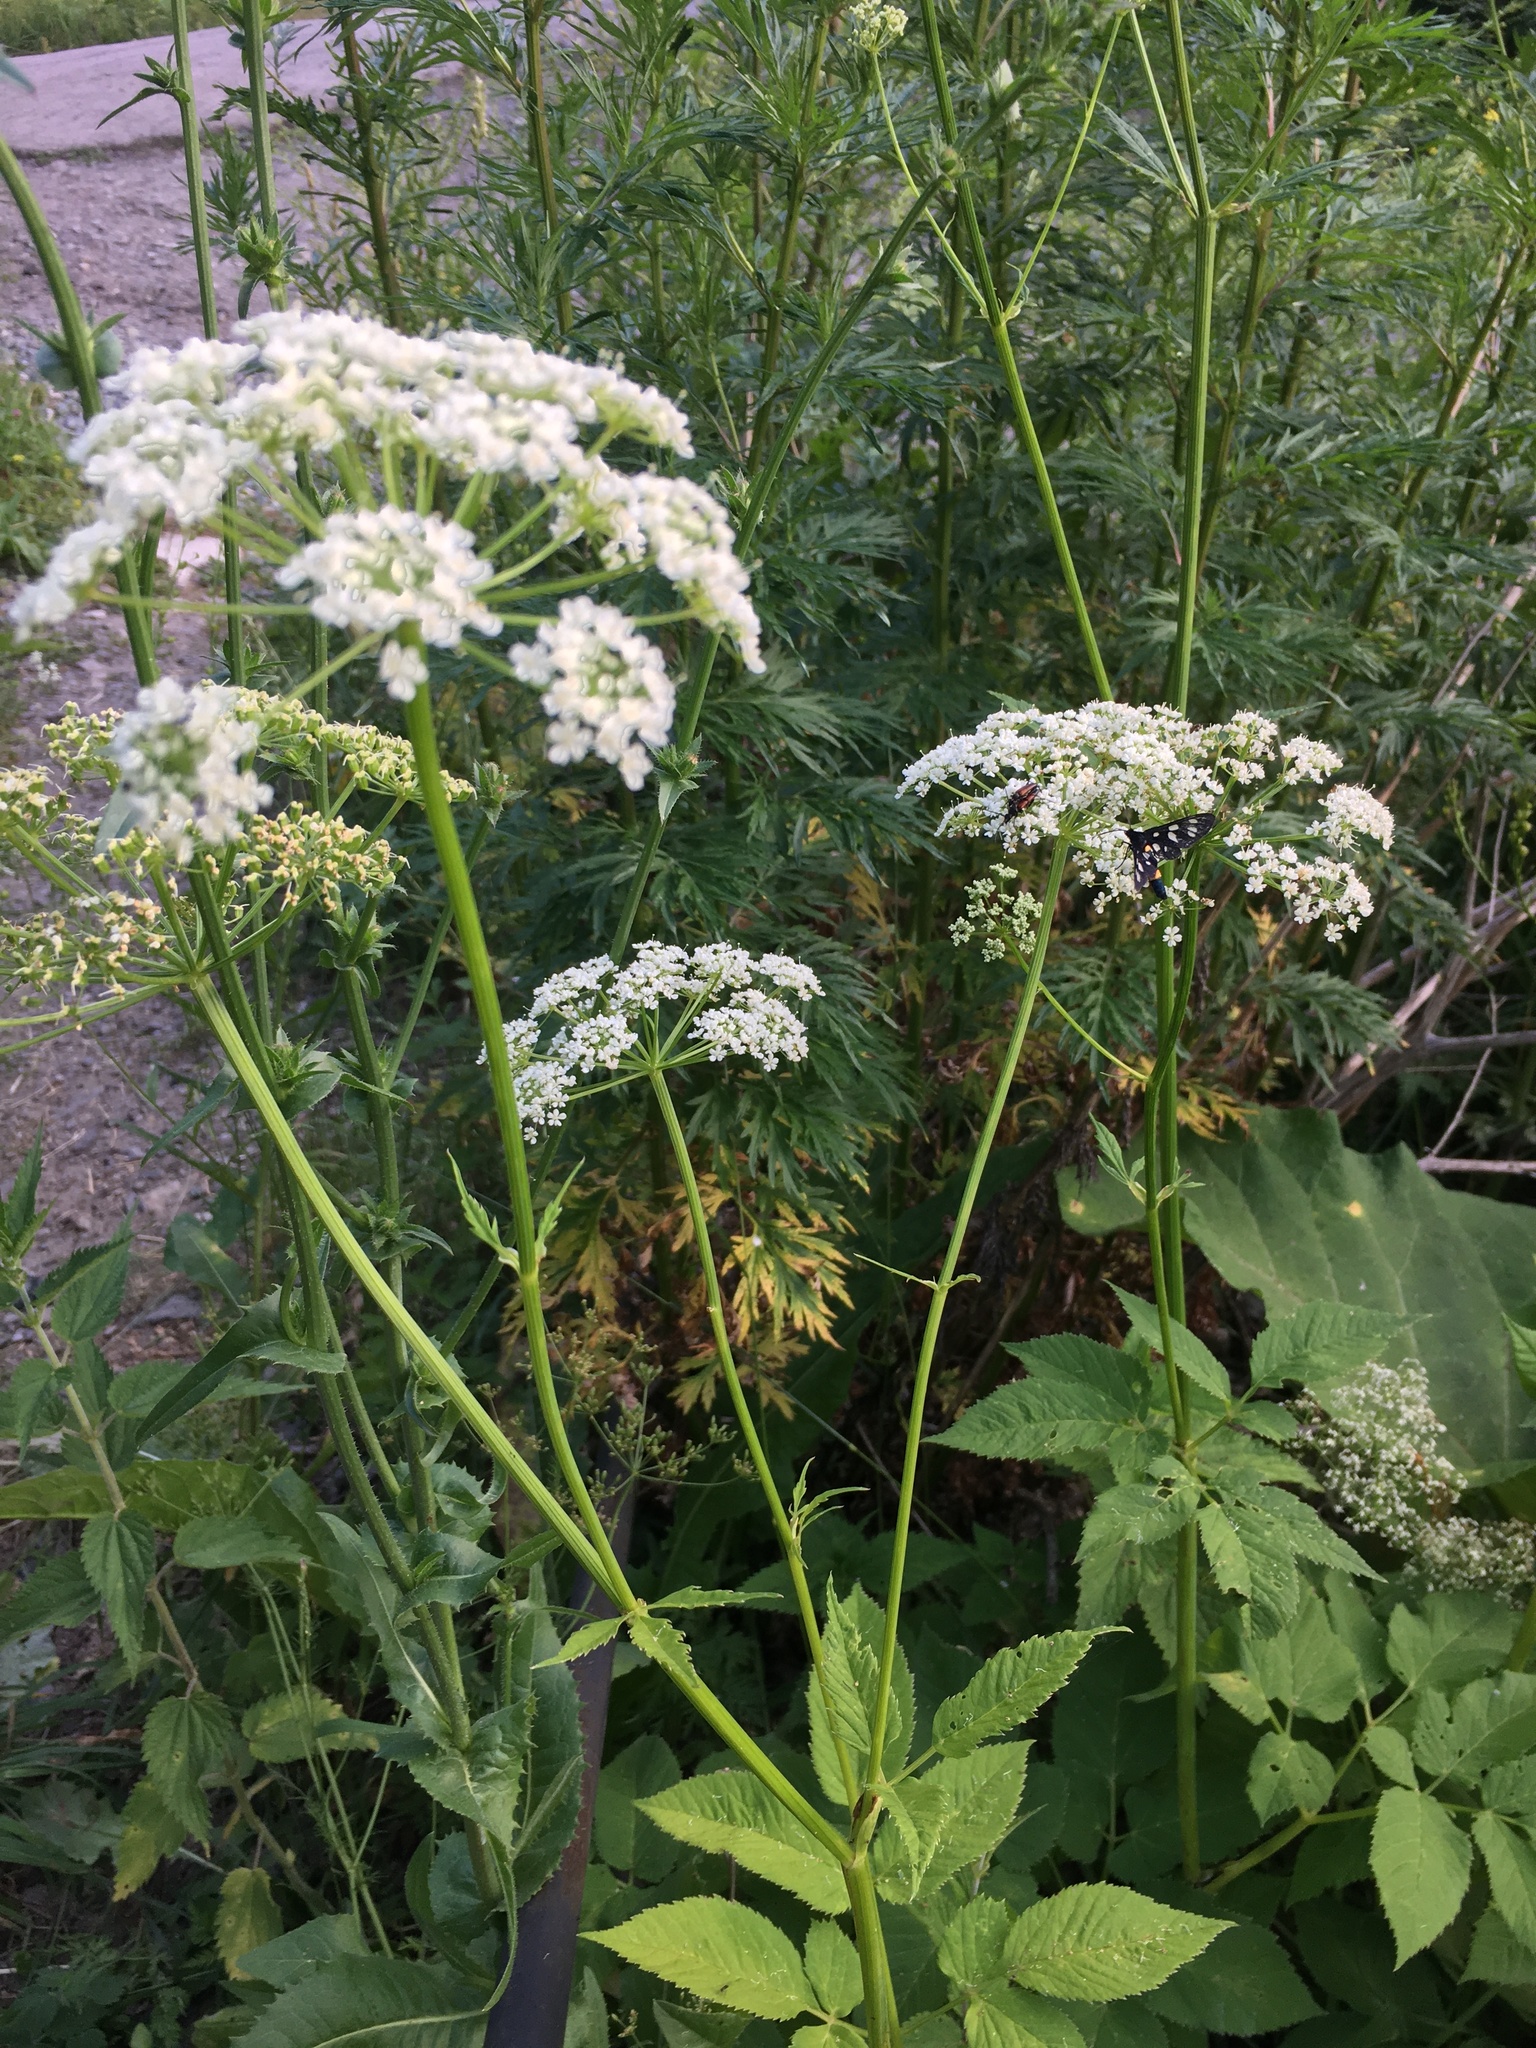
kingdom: Plantae
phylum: Tracheophyta
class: Magnoliopsida
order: Apiales
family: Apiaceae
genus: Aegopodium
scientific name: Aegopodium podagraria
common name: Ground-elder
